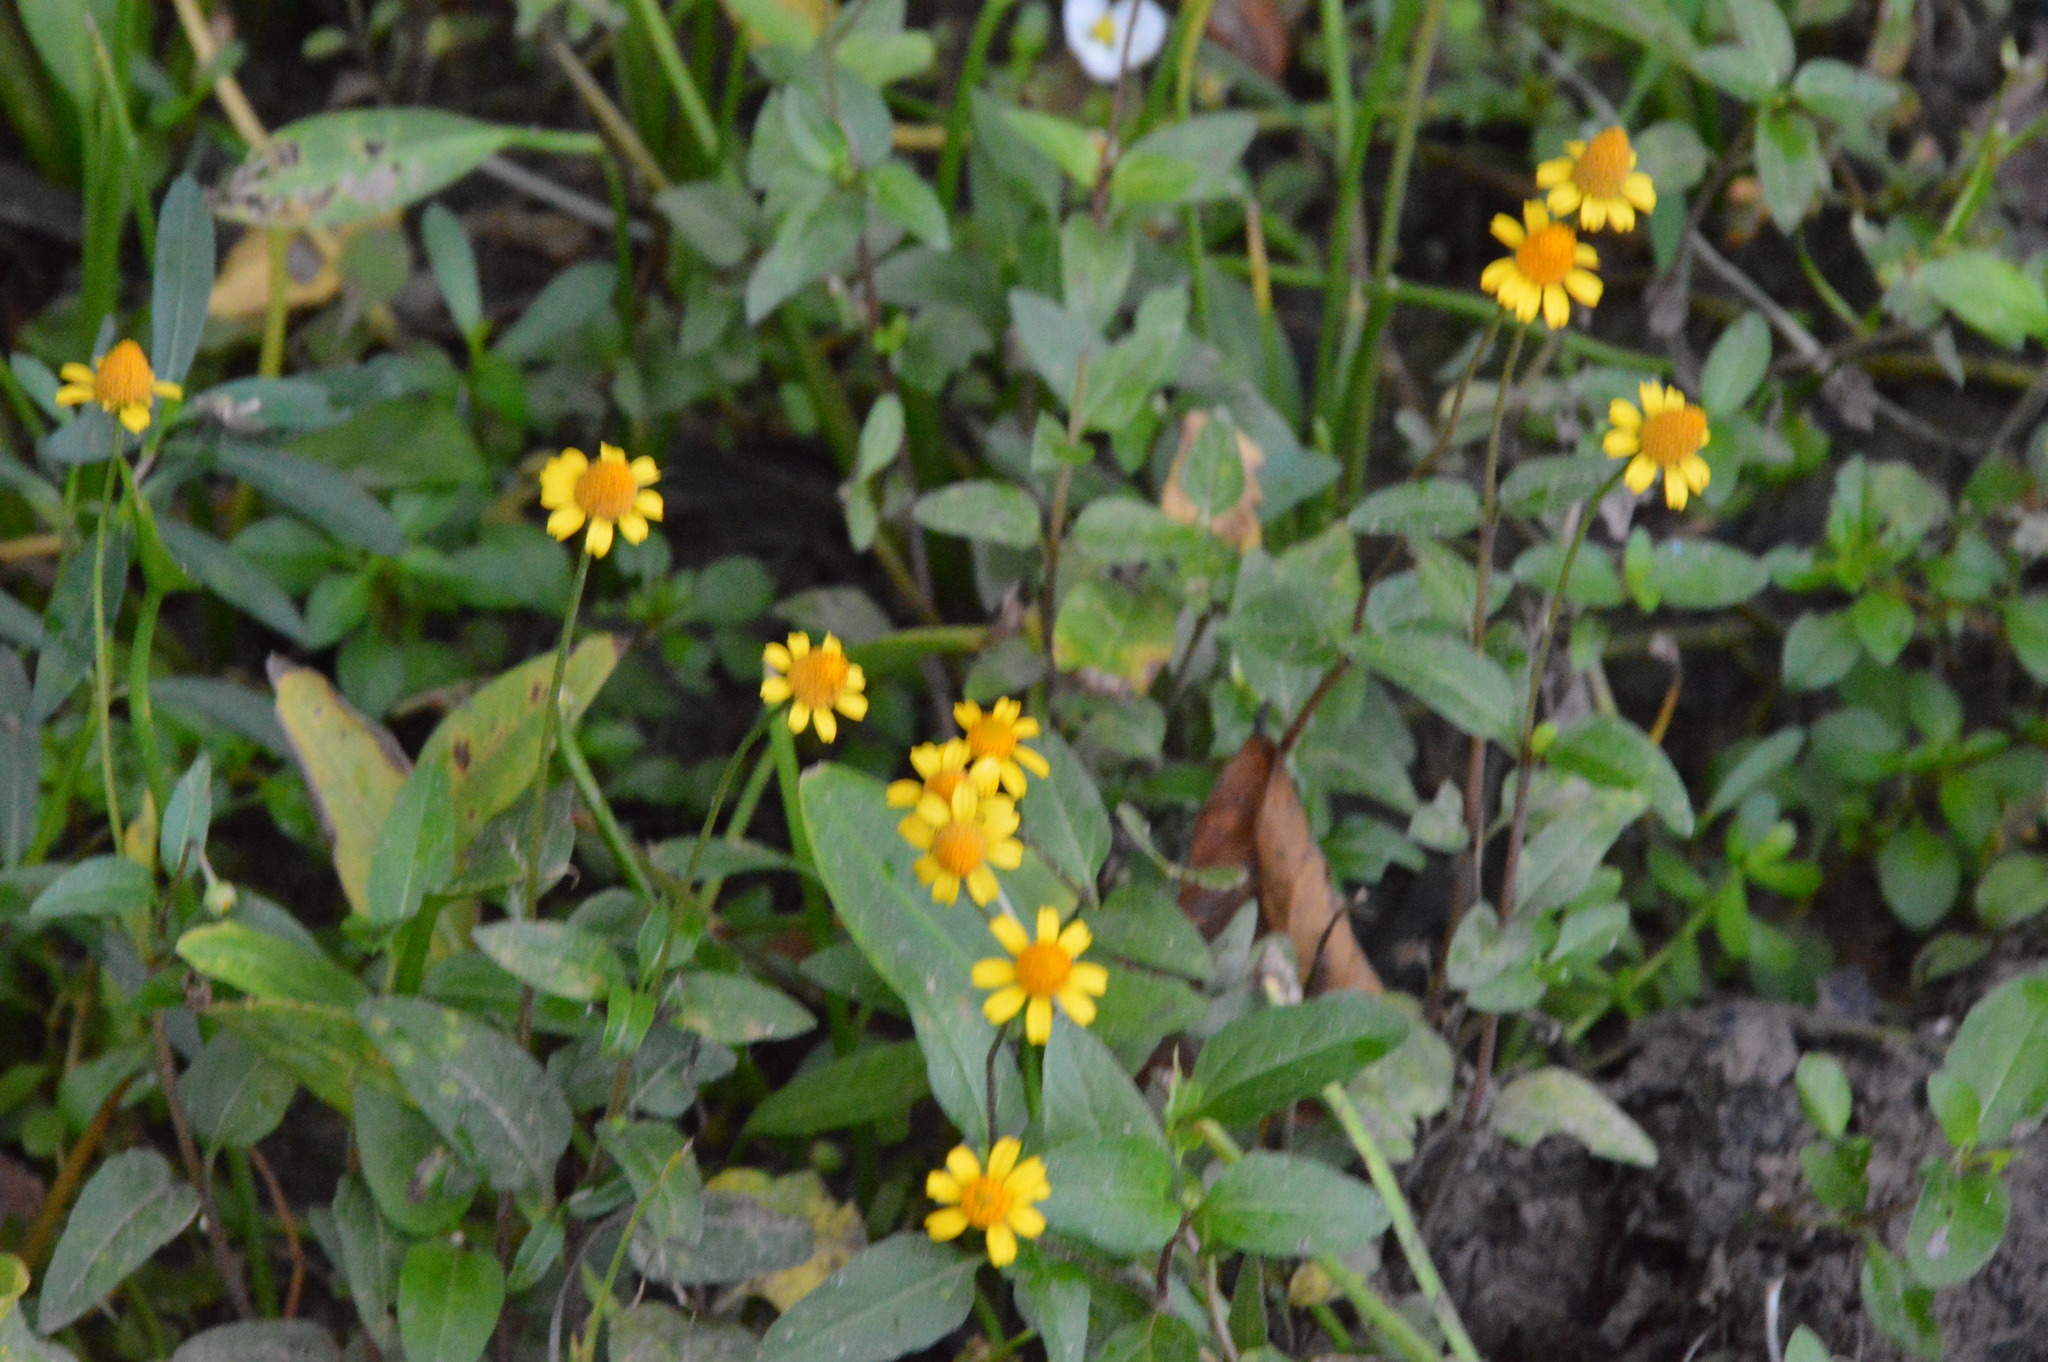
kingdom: Plantae
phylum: Tracheophyta
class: Magnoliopsida
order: Asterales
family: Asteraceae
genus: Acmella
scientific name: Acmella repens
